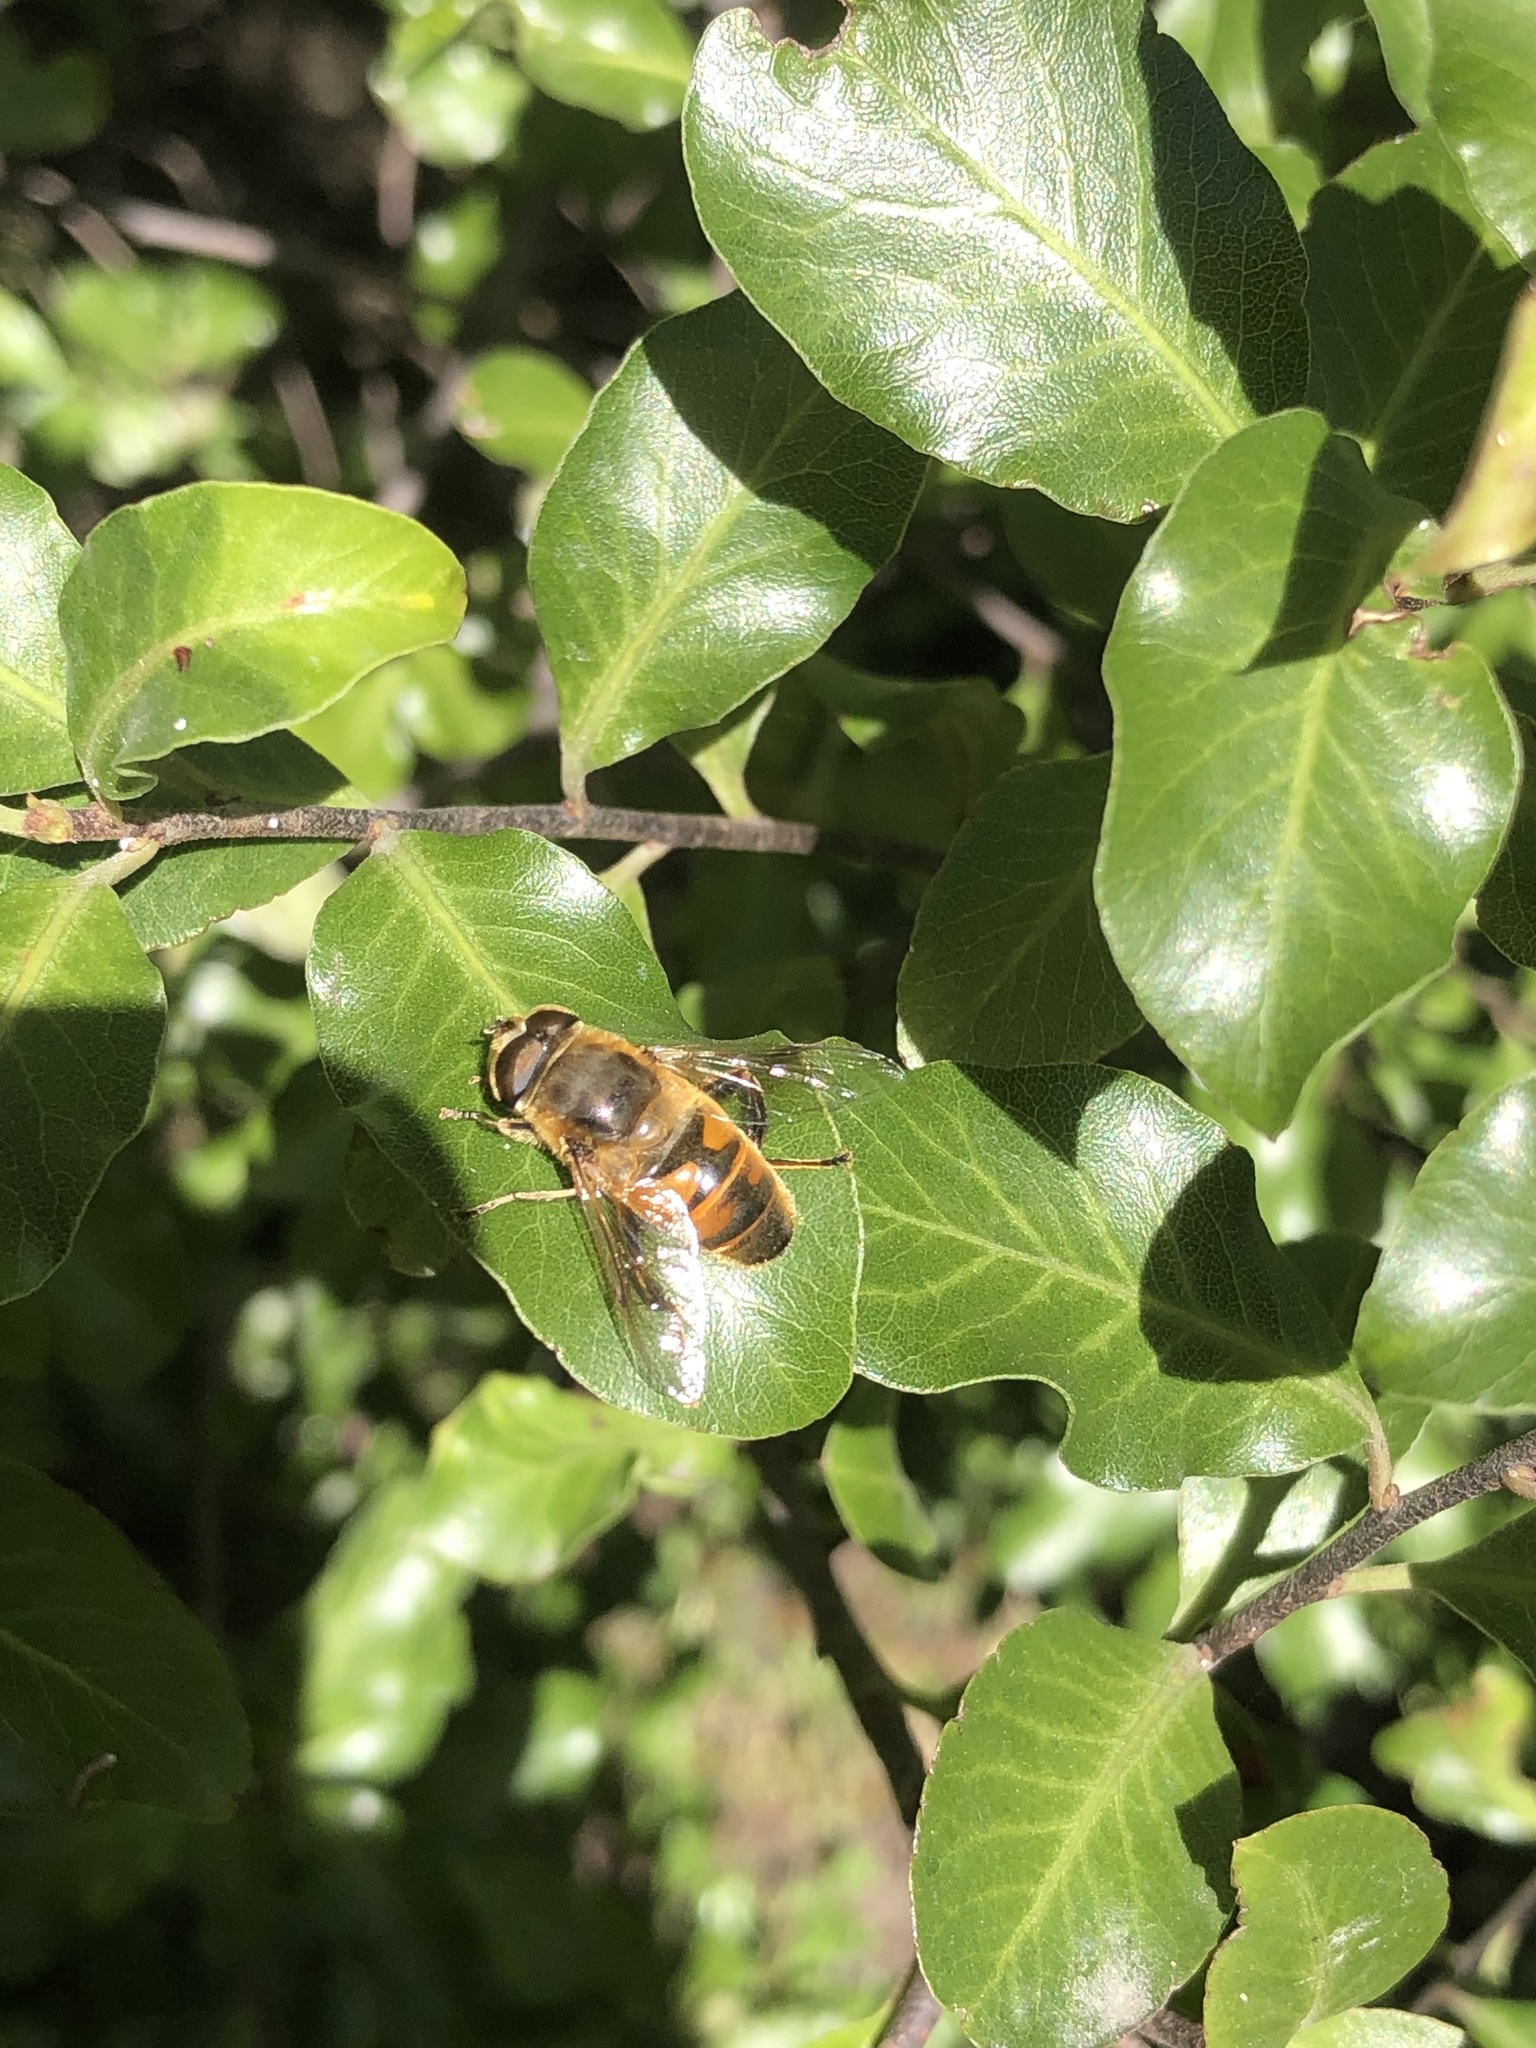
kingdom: Animalia
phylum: Arthropoda
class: Insecta
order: Diptera
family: Syrphidae
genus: Eristalis
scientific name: Eristalis tenax
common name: Drone fly
